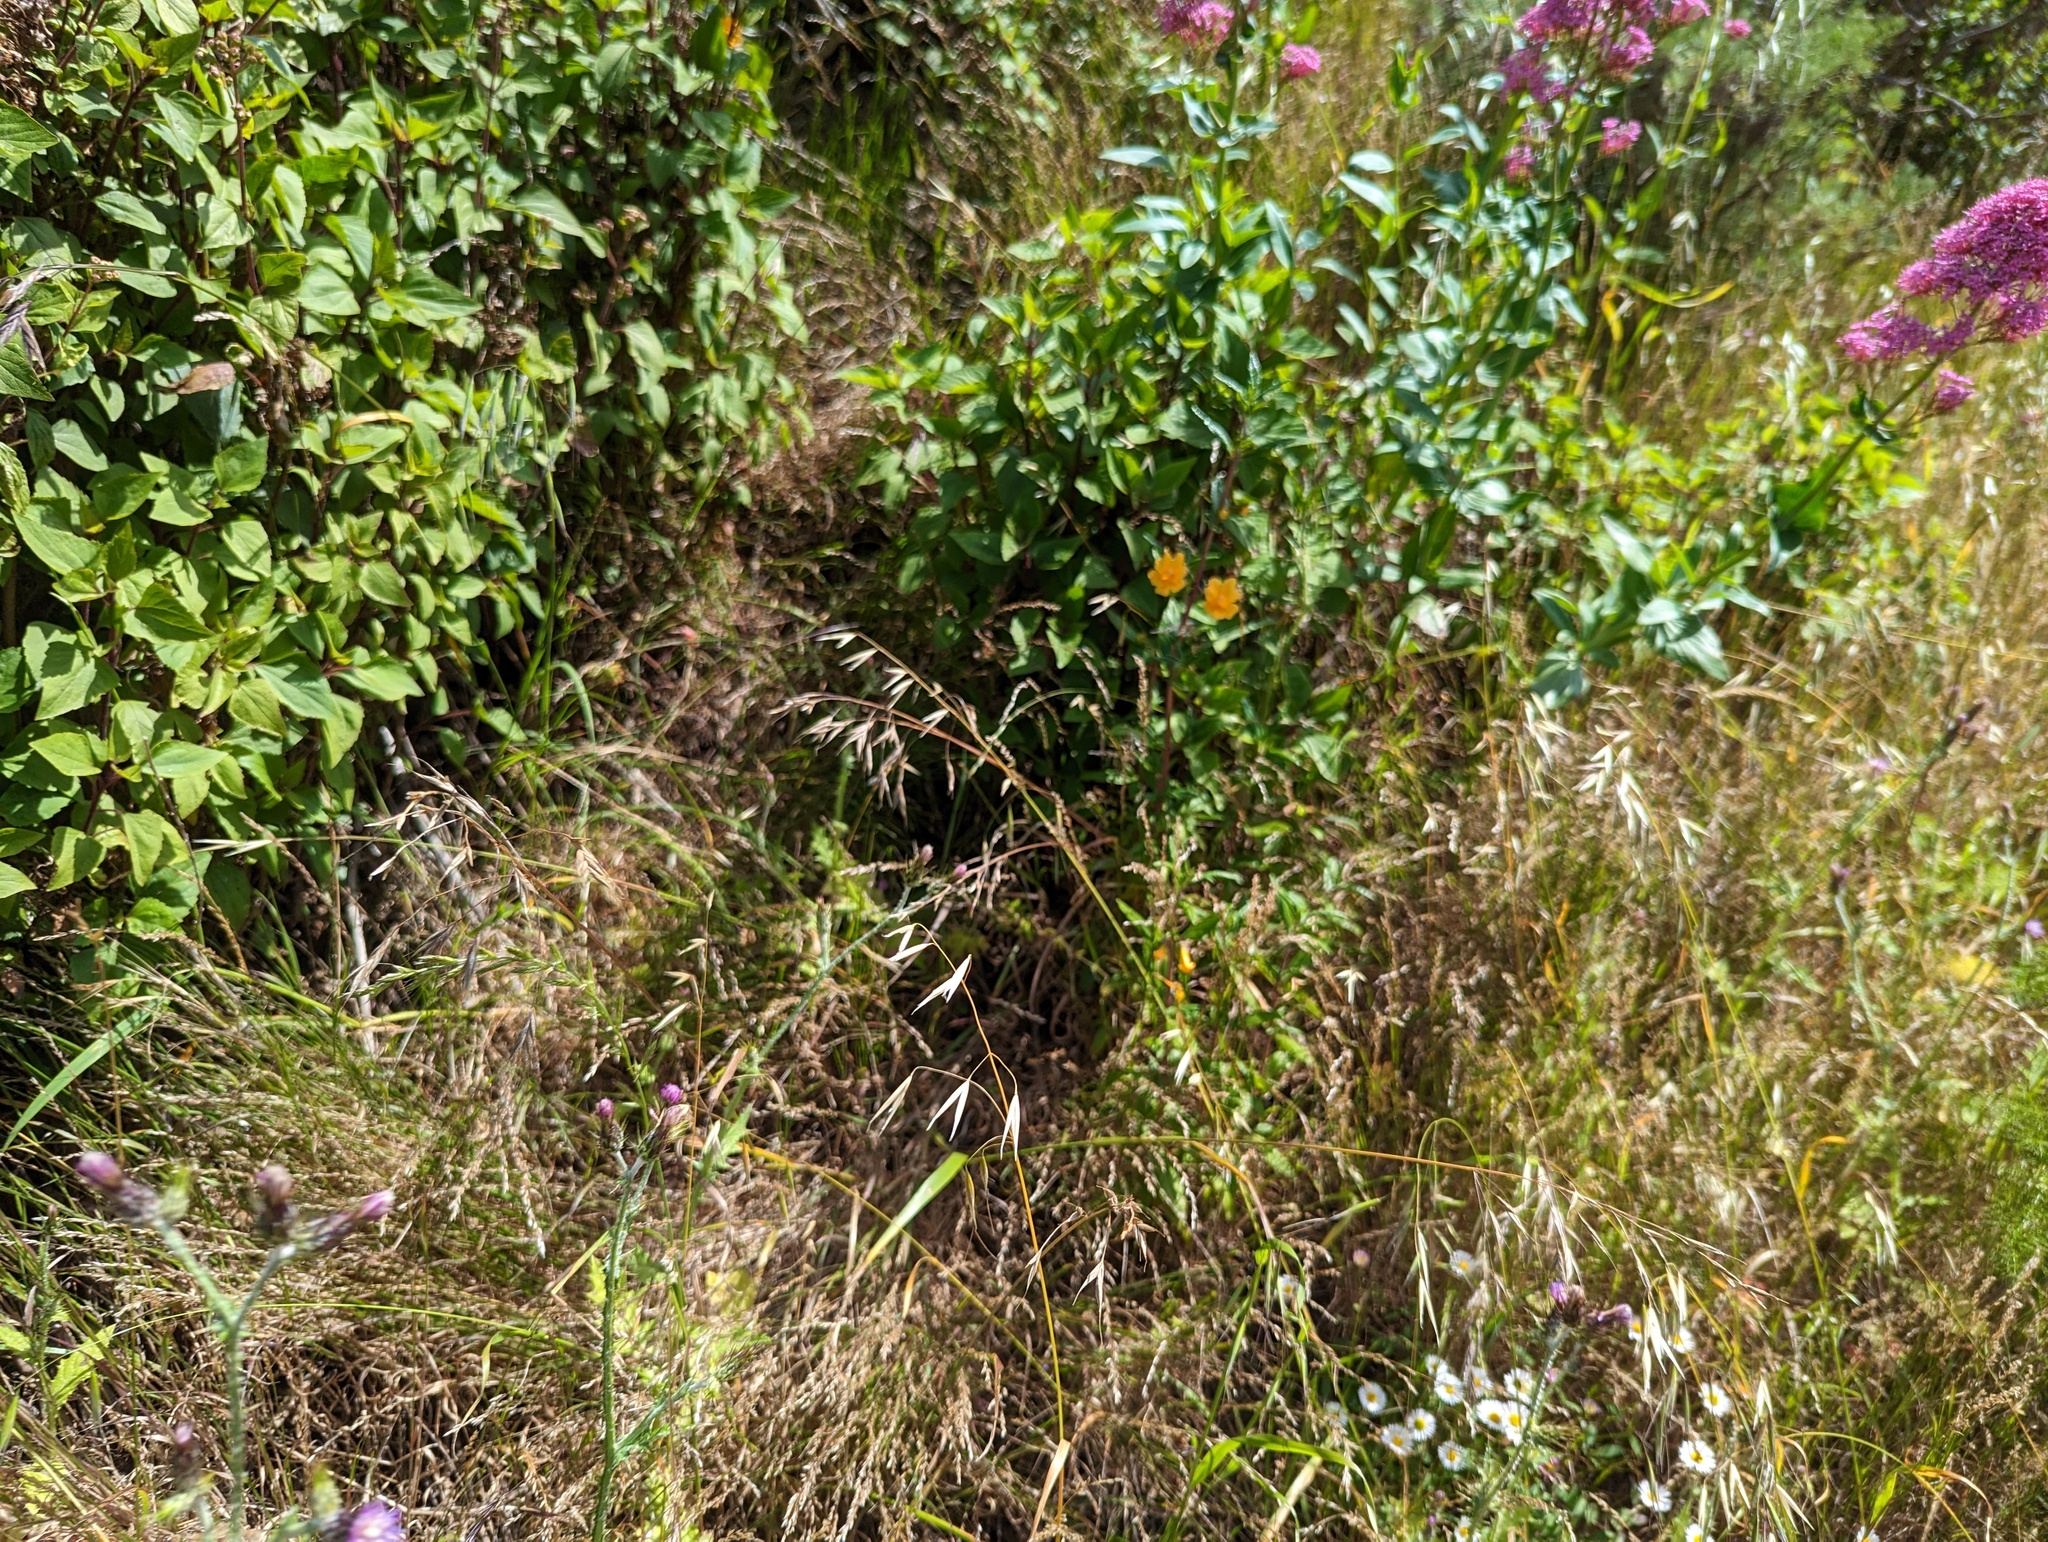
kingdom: Plantae
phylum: Tracheophyta
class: Magnoliopsida
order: Lamiales
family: Phrymaceae
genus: Diplacus
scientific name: Diplacus aurantiacus
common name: Bush monkey-flower
